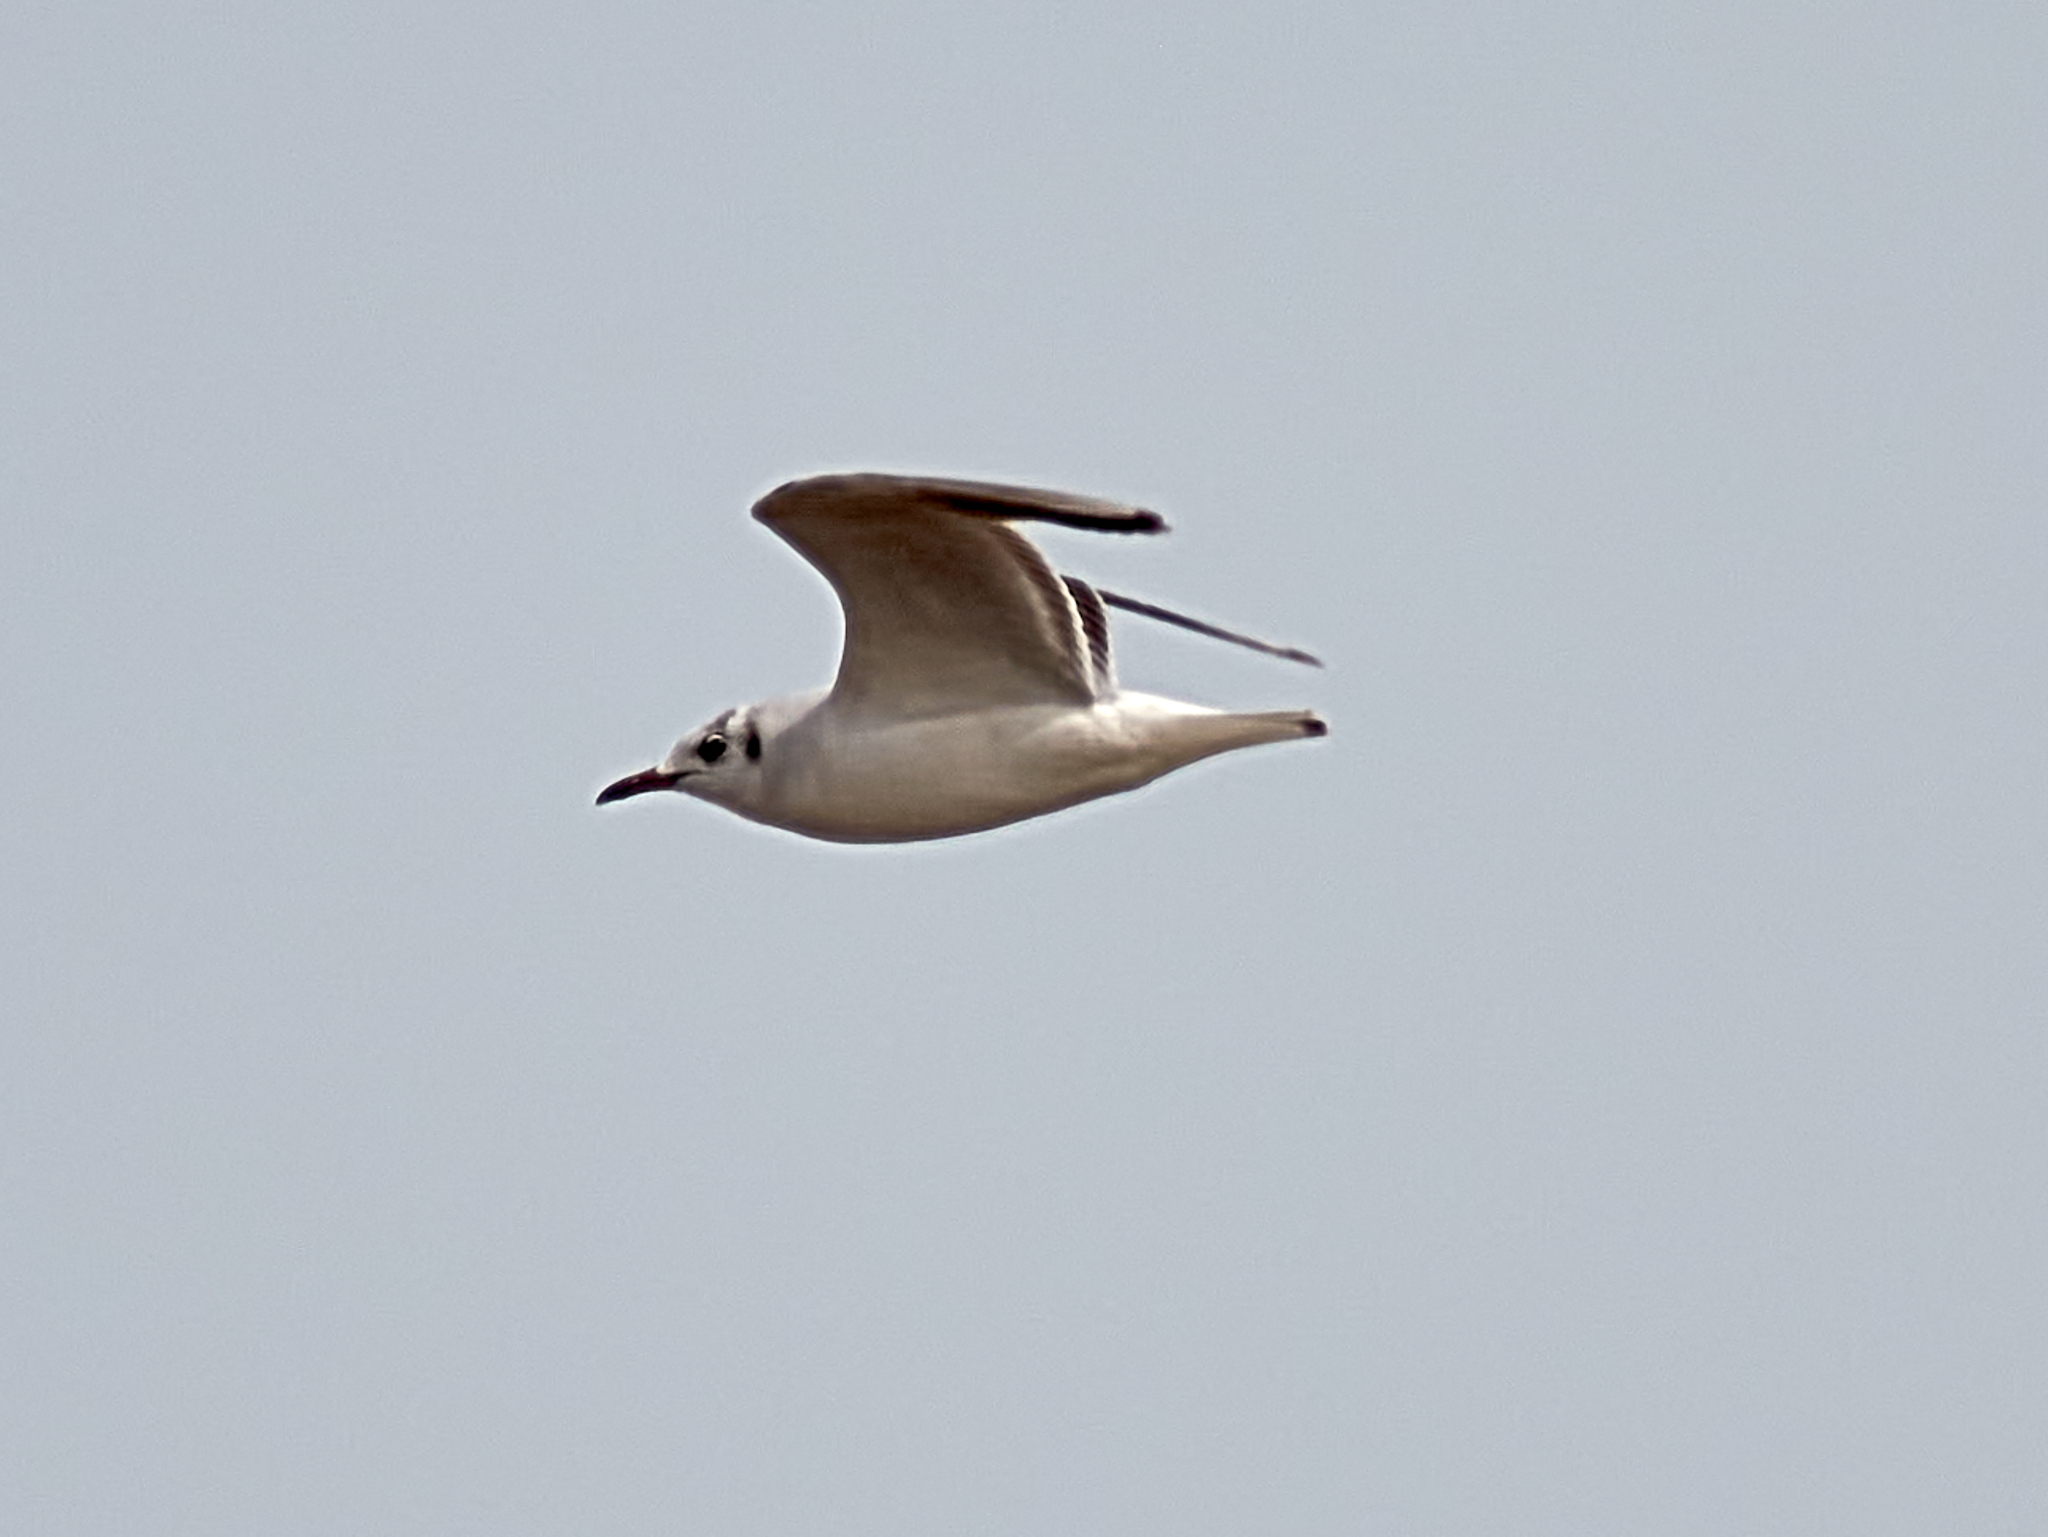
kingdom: Animalia
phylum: Chordata
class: Aves
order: Charadriiformes
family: Laridae
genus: Chroicocephalus
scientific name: Chroicocephalus ridibundus
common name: Black-headed gull
